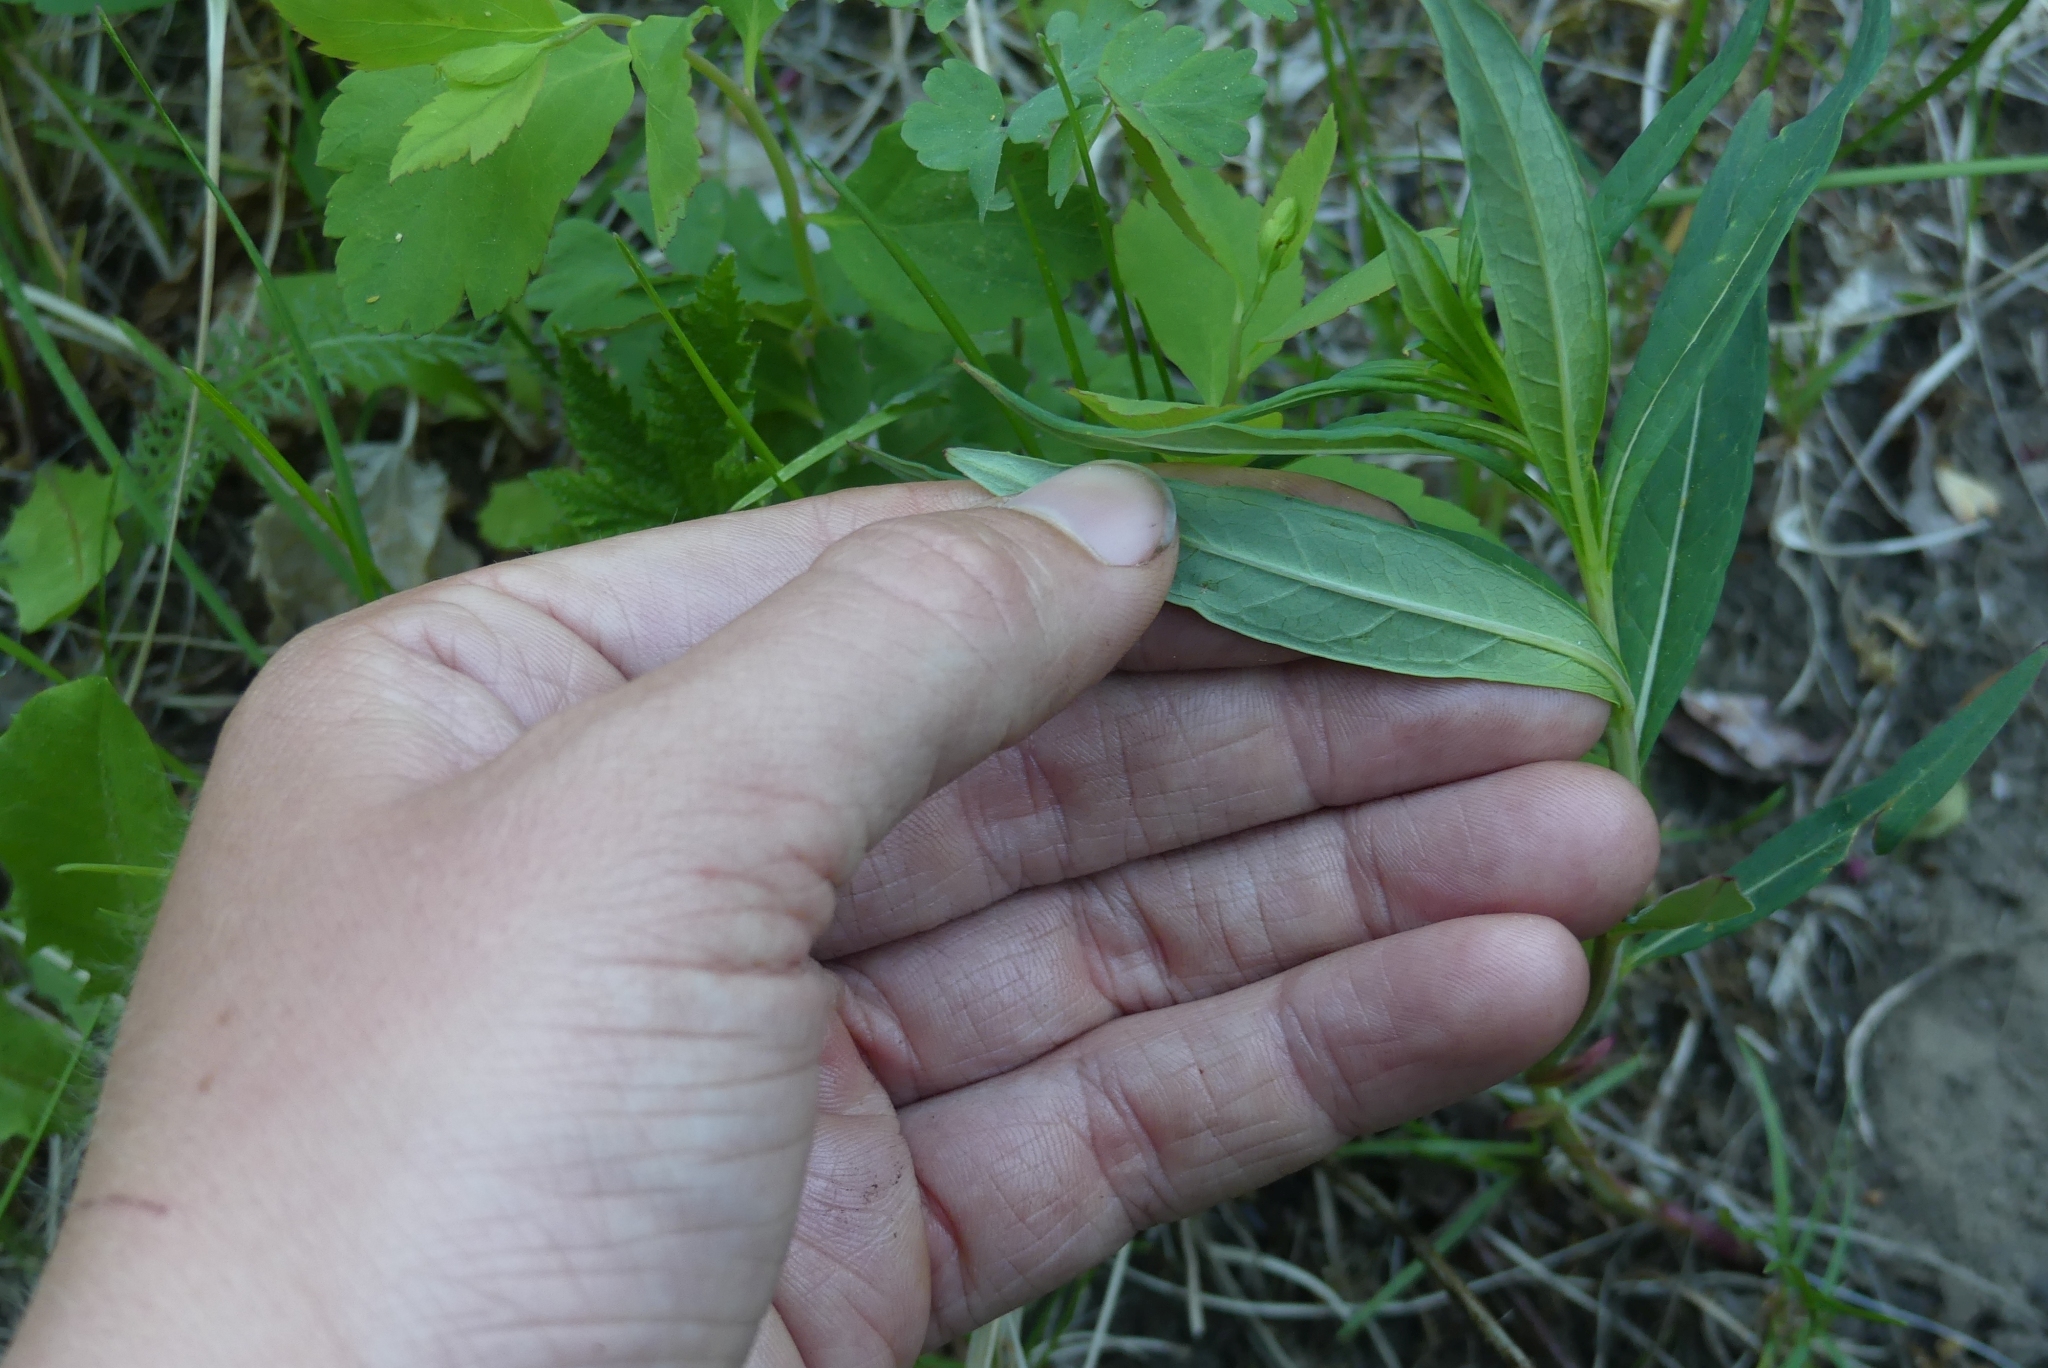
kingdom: Plantae
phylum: Tracheophyta
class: Magnoliopsida
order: Myrtales
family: Onagraceae
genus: Chamaenerion
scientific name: Chamaenerion angustifolium
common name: Fireweed
